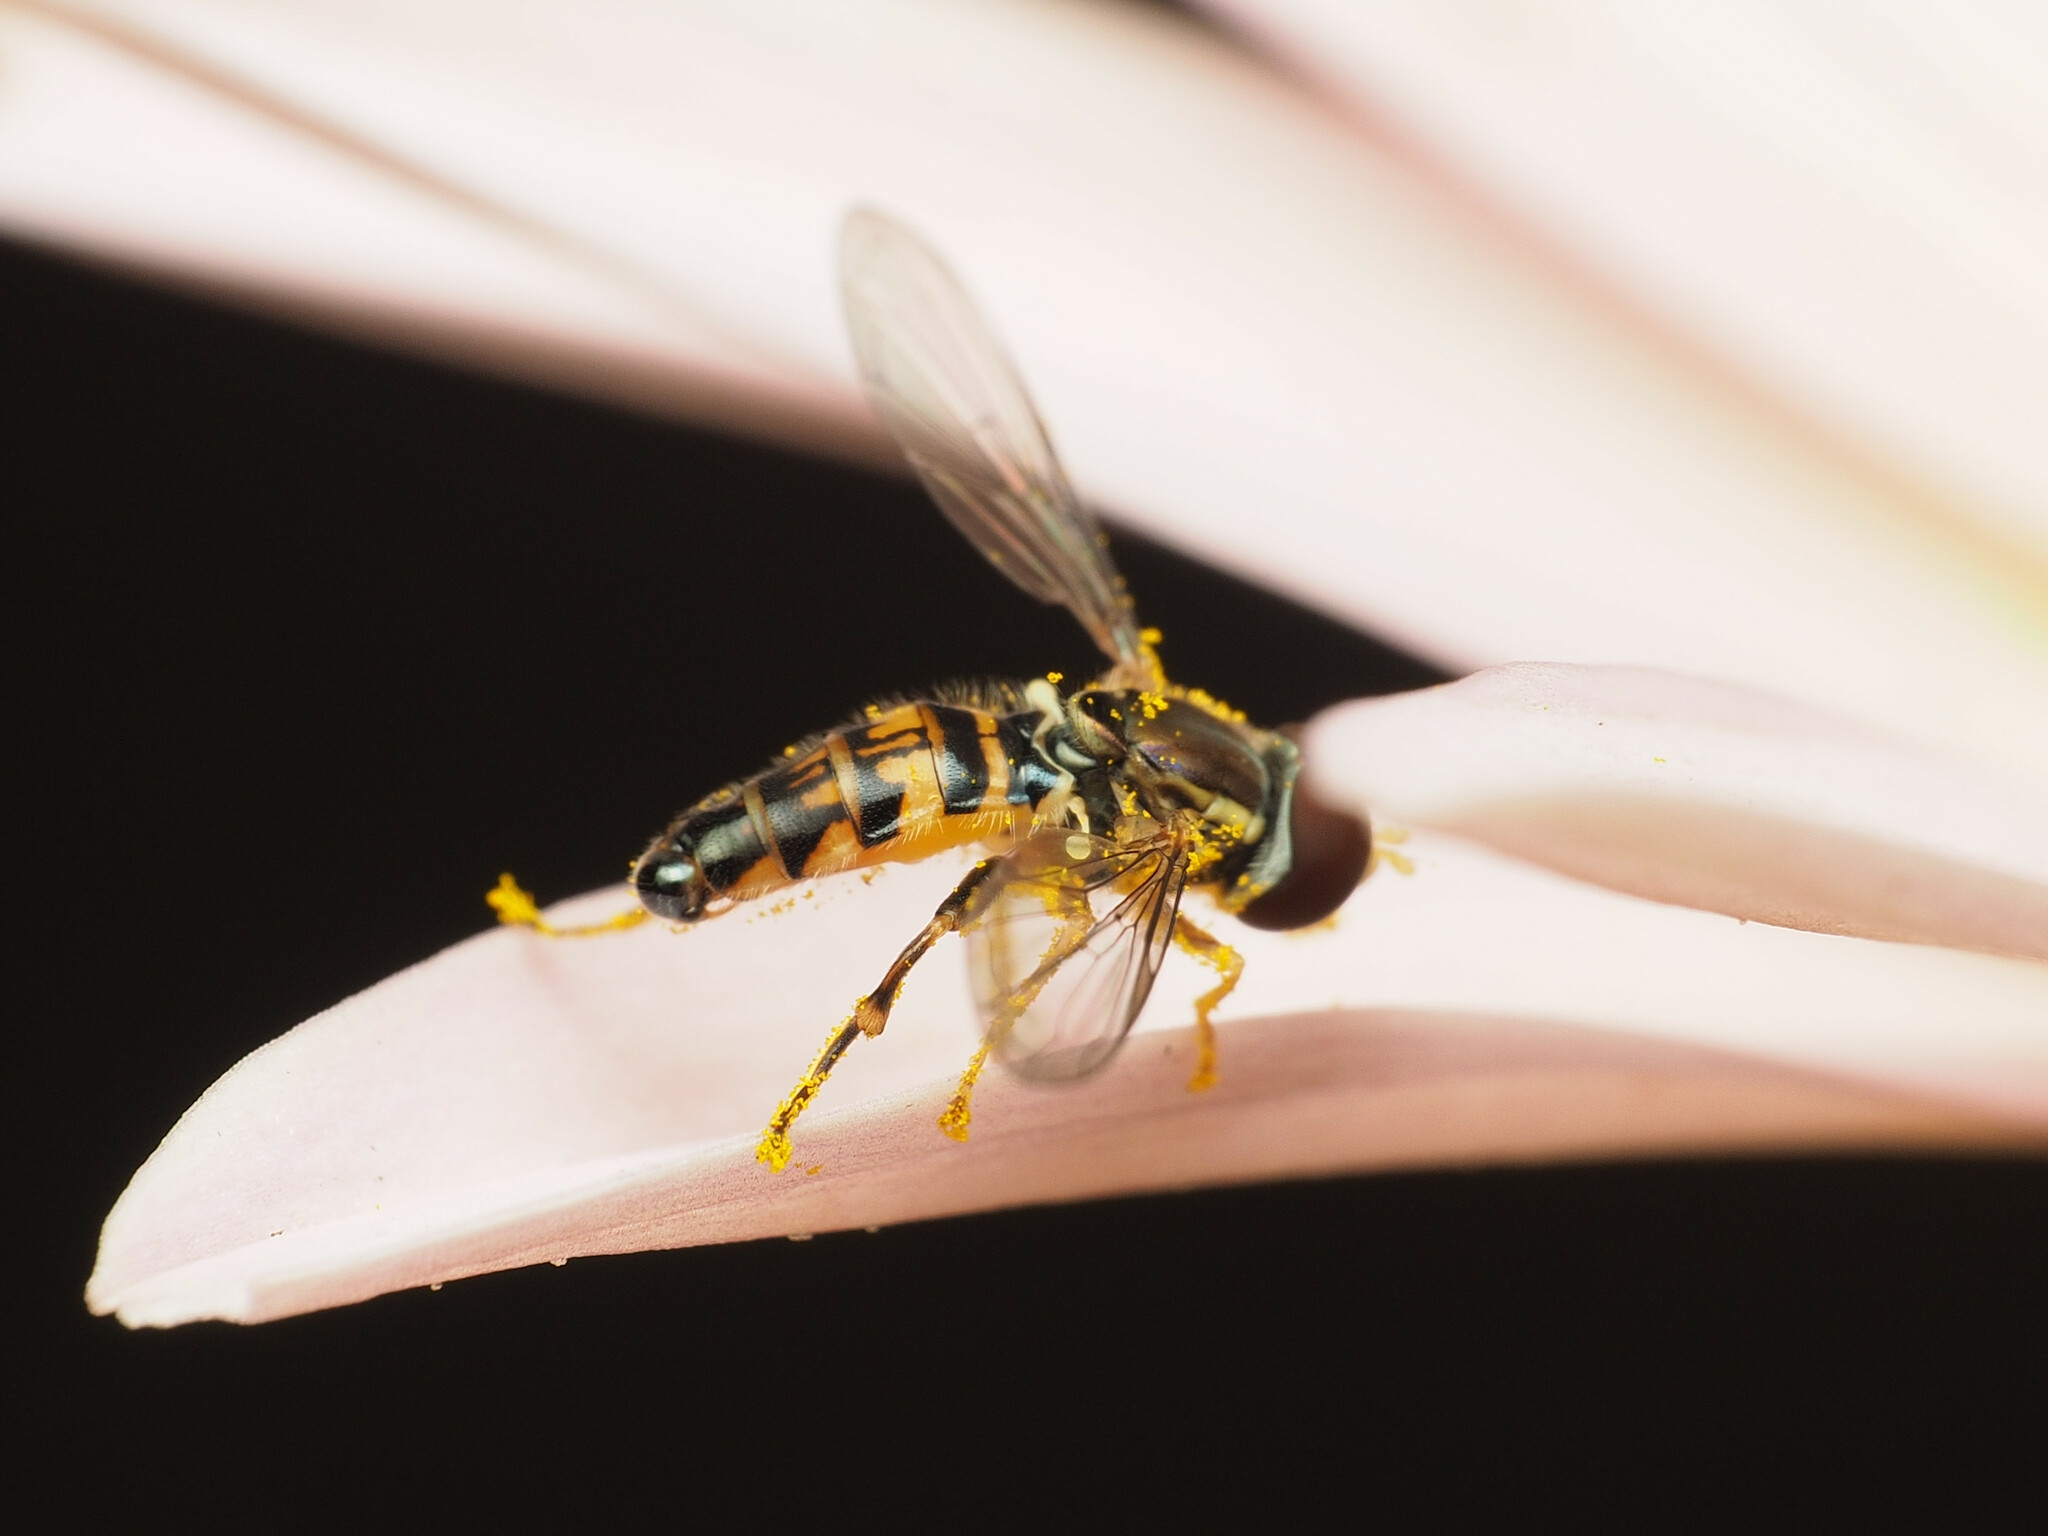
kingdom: Animalia
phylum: Arthropoda
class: Insecta
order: Diptera
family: Syrphidae
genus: Toxomerus
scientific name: Toxomerus geminatus
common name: Eastern calligrapher
